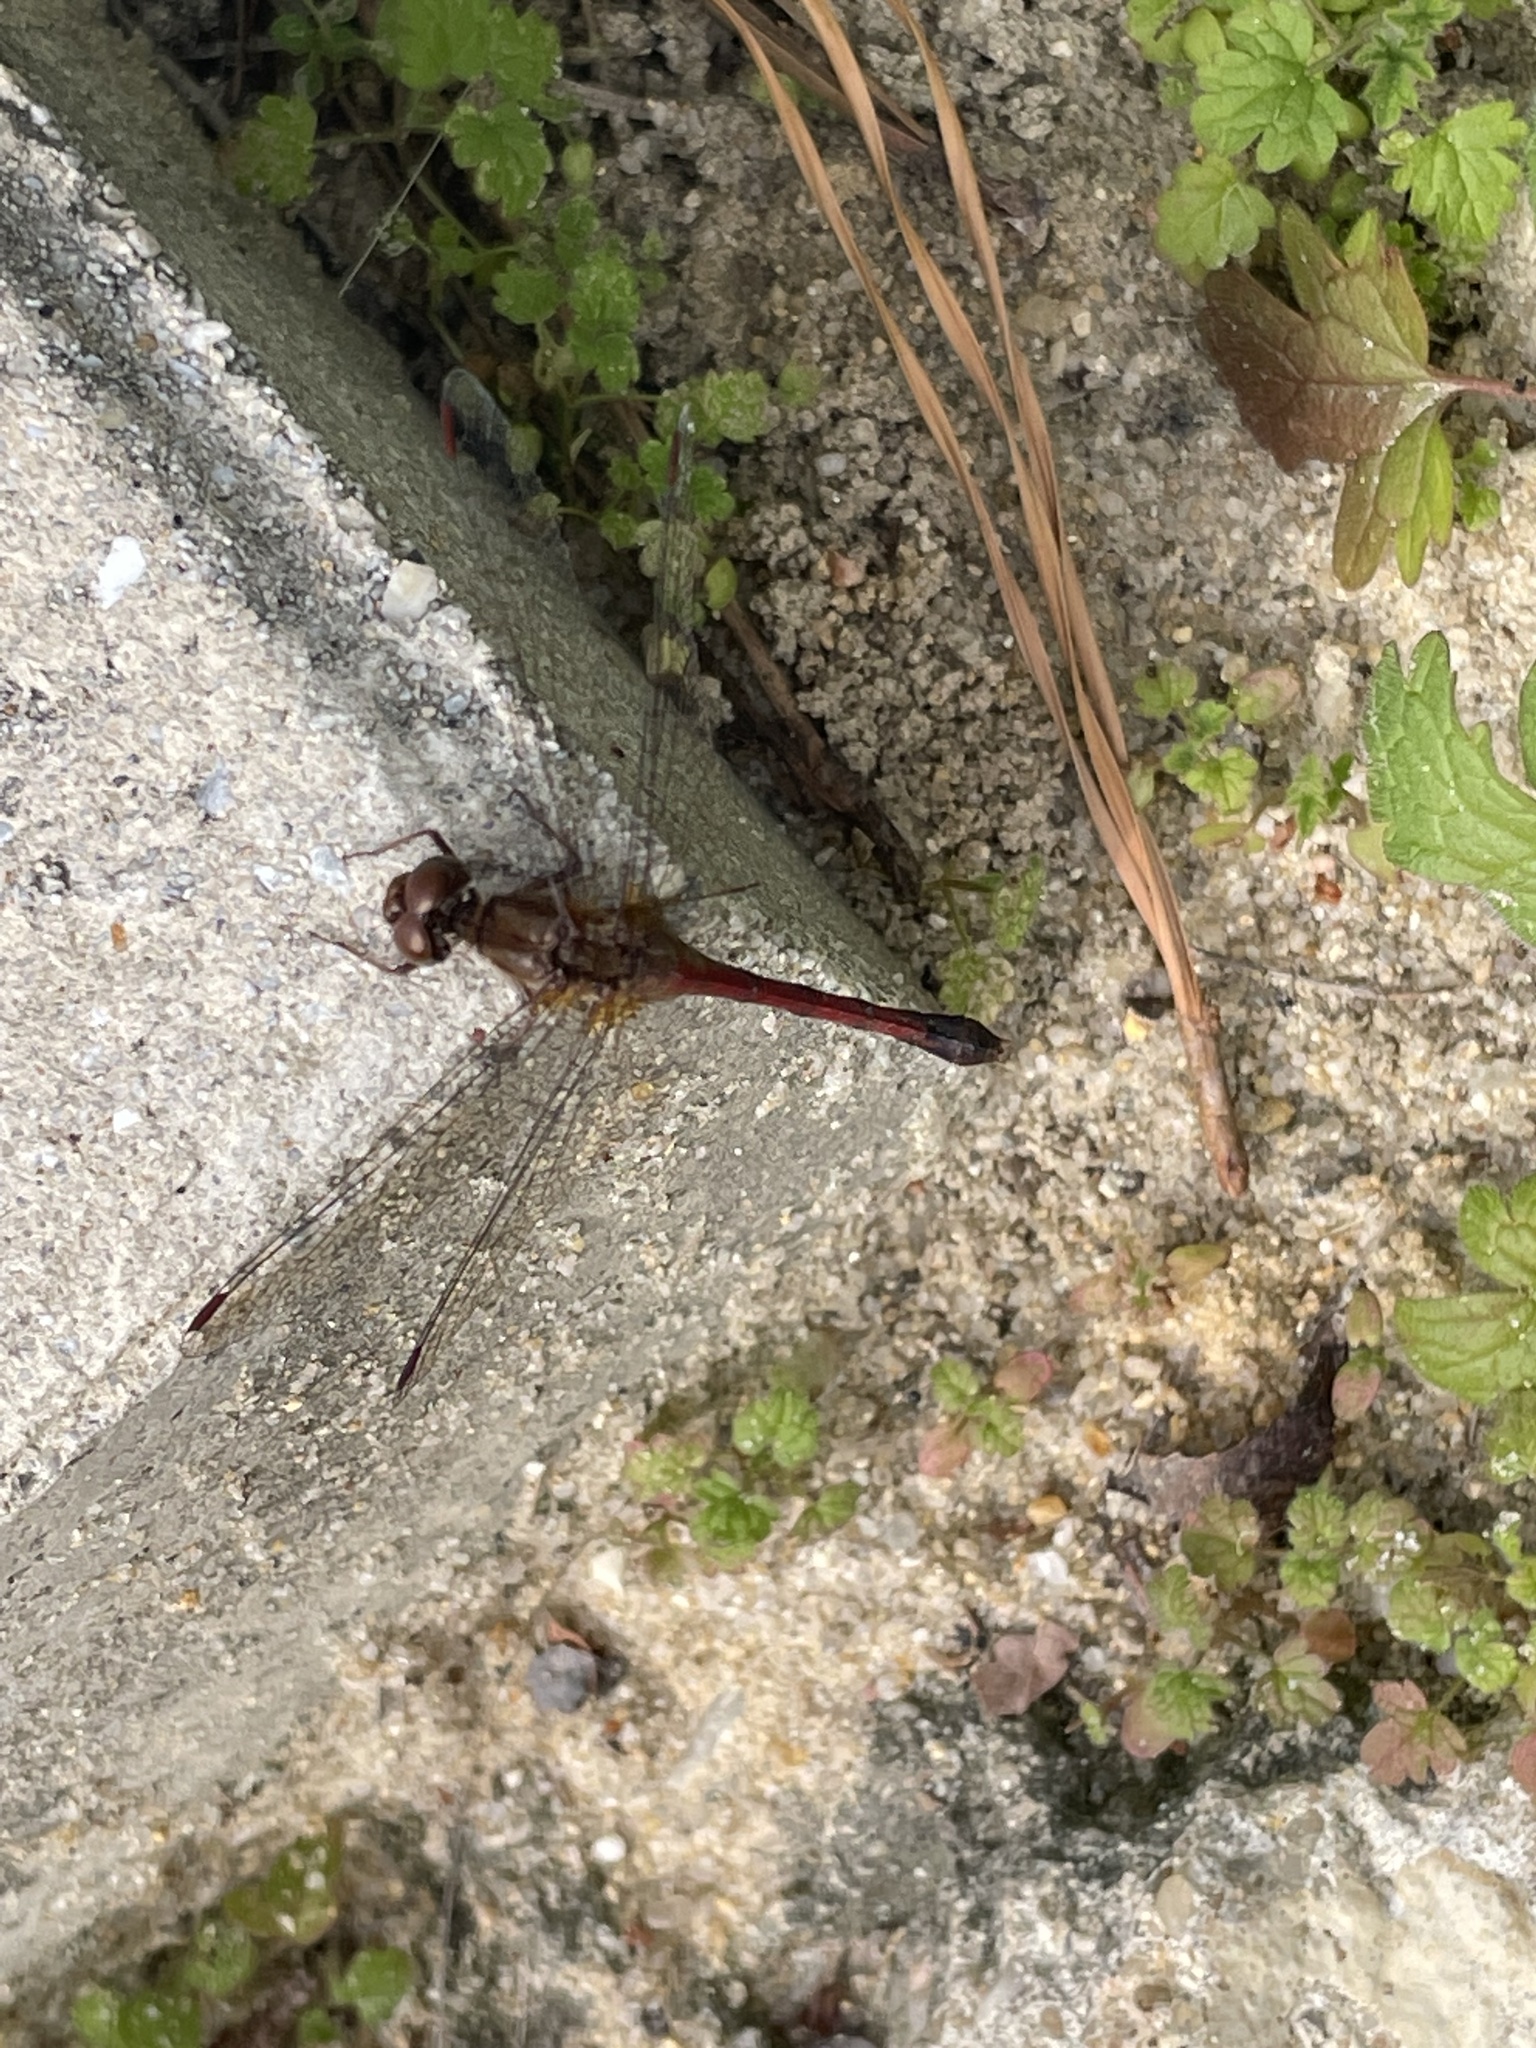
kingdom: Animalia
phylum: Arthropoda
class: Insecta
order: Odonata
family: Libellulidae
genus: Sympetrum
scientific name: Sympetrum vicinum
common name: Autumn meadowhawk
